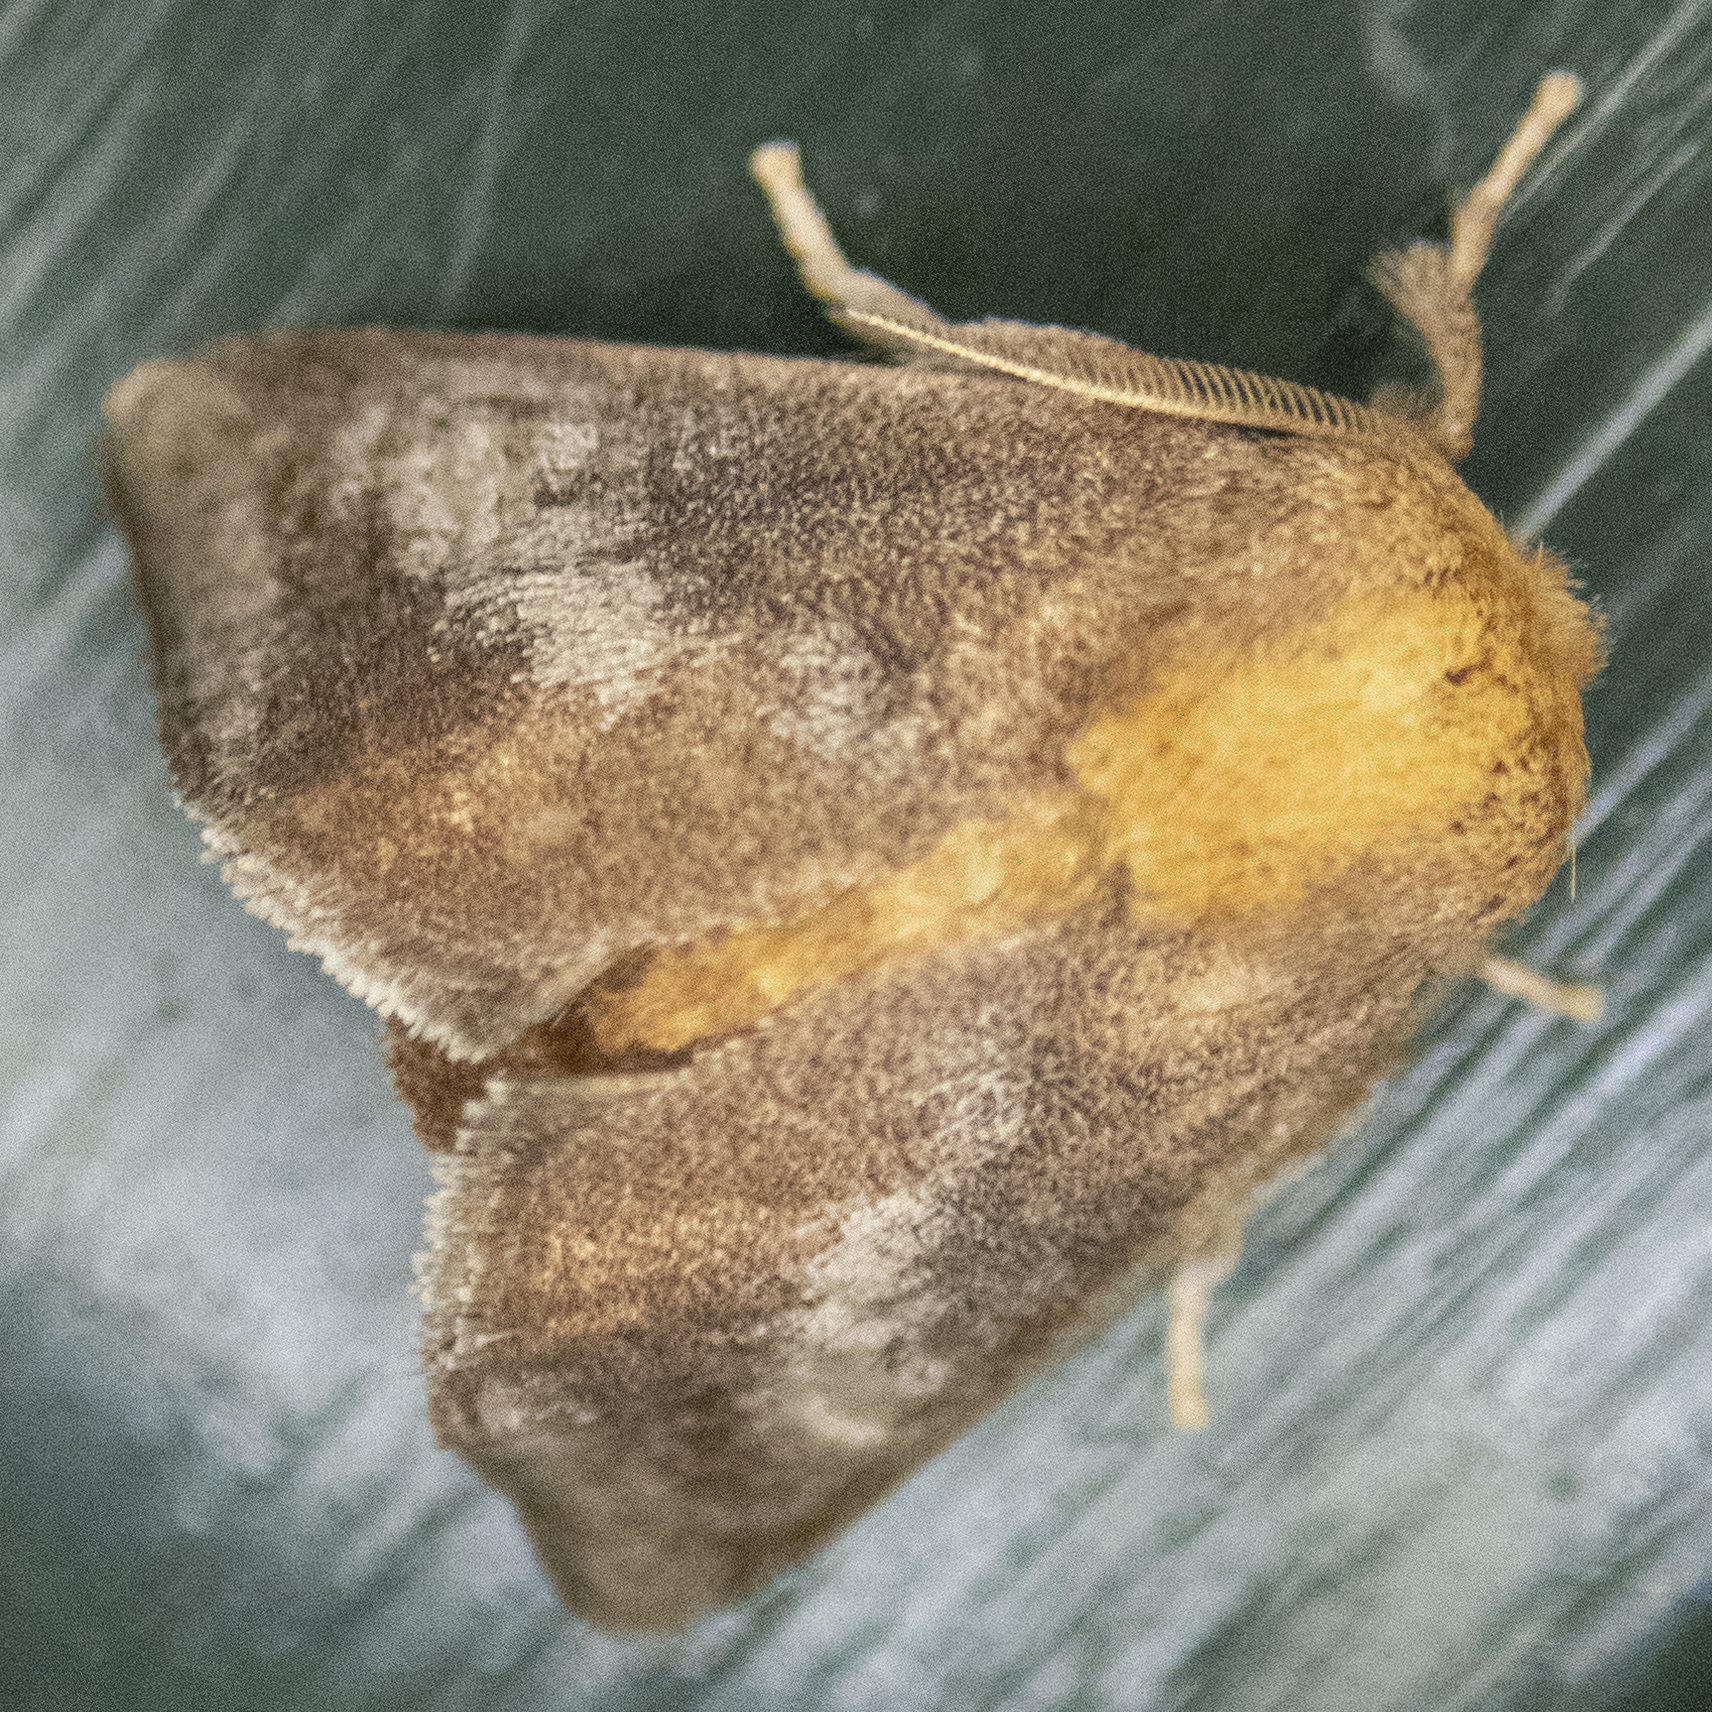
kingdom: Animalia
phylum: Arthropoda
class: Insecta
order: Lepidoptera
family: Limacodidae
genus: Isa
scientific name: Isa textula
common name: Crowned slug moth
